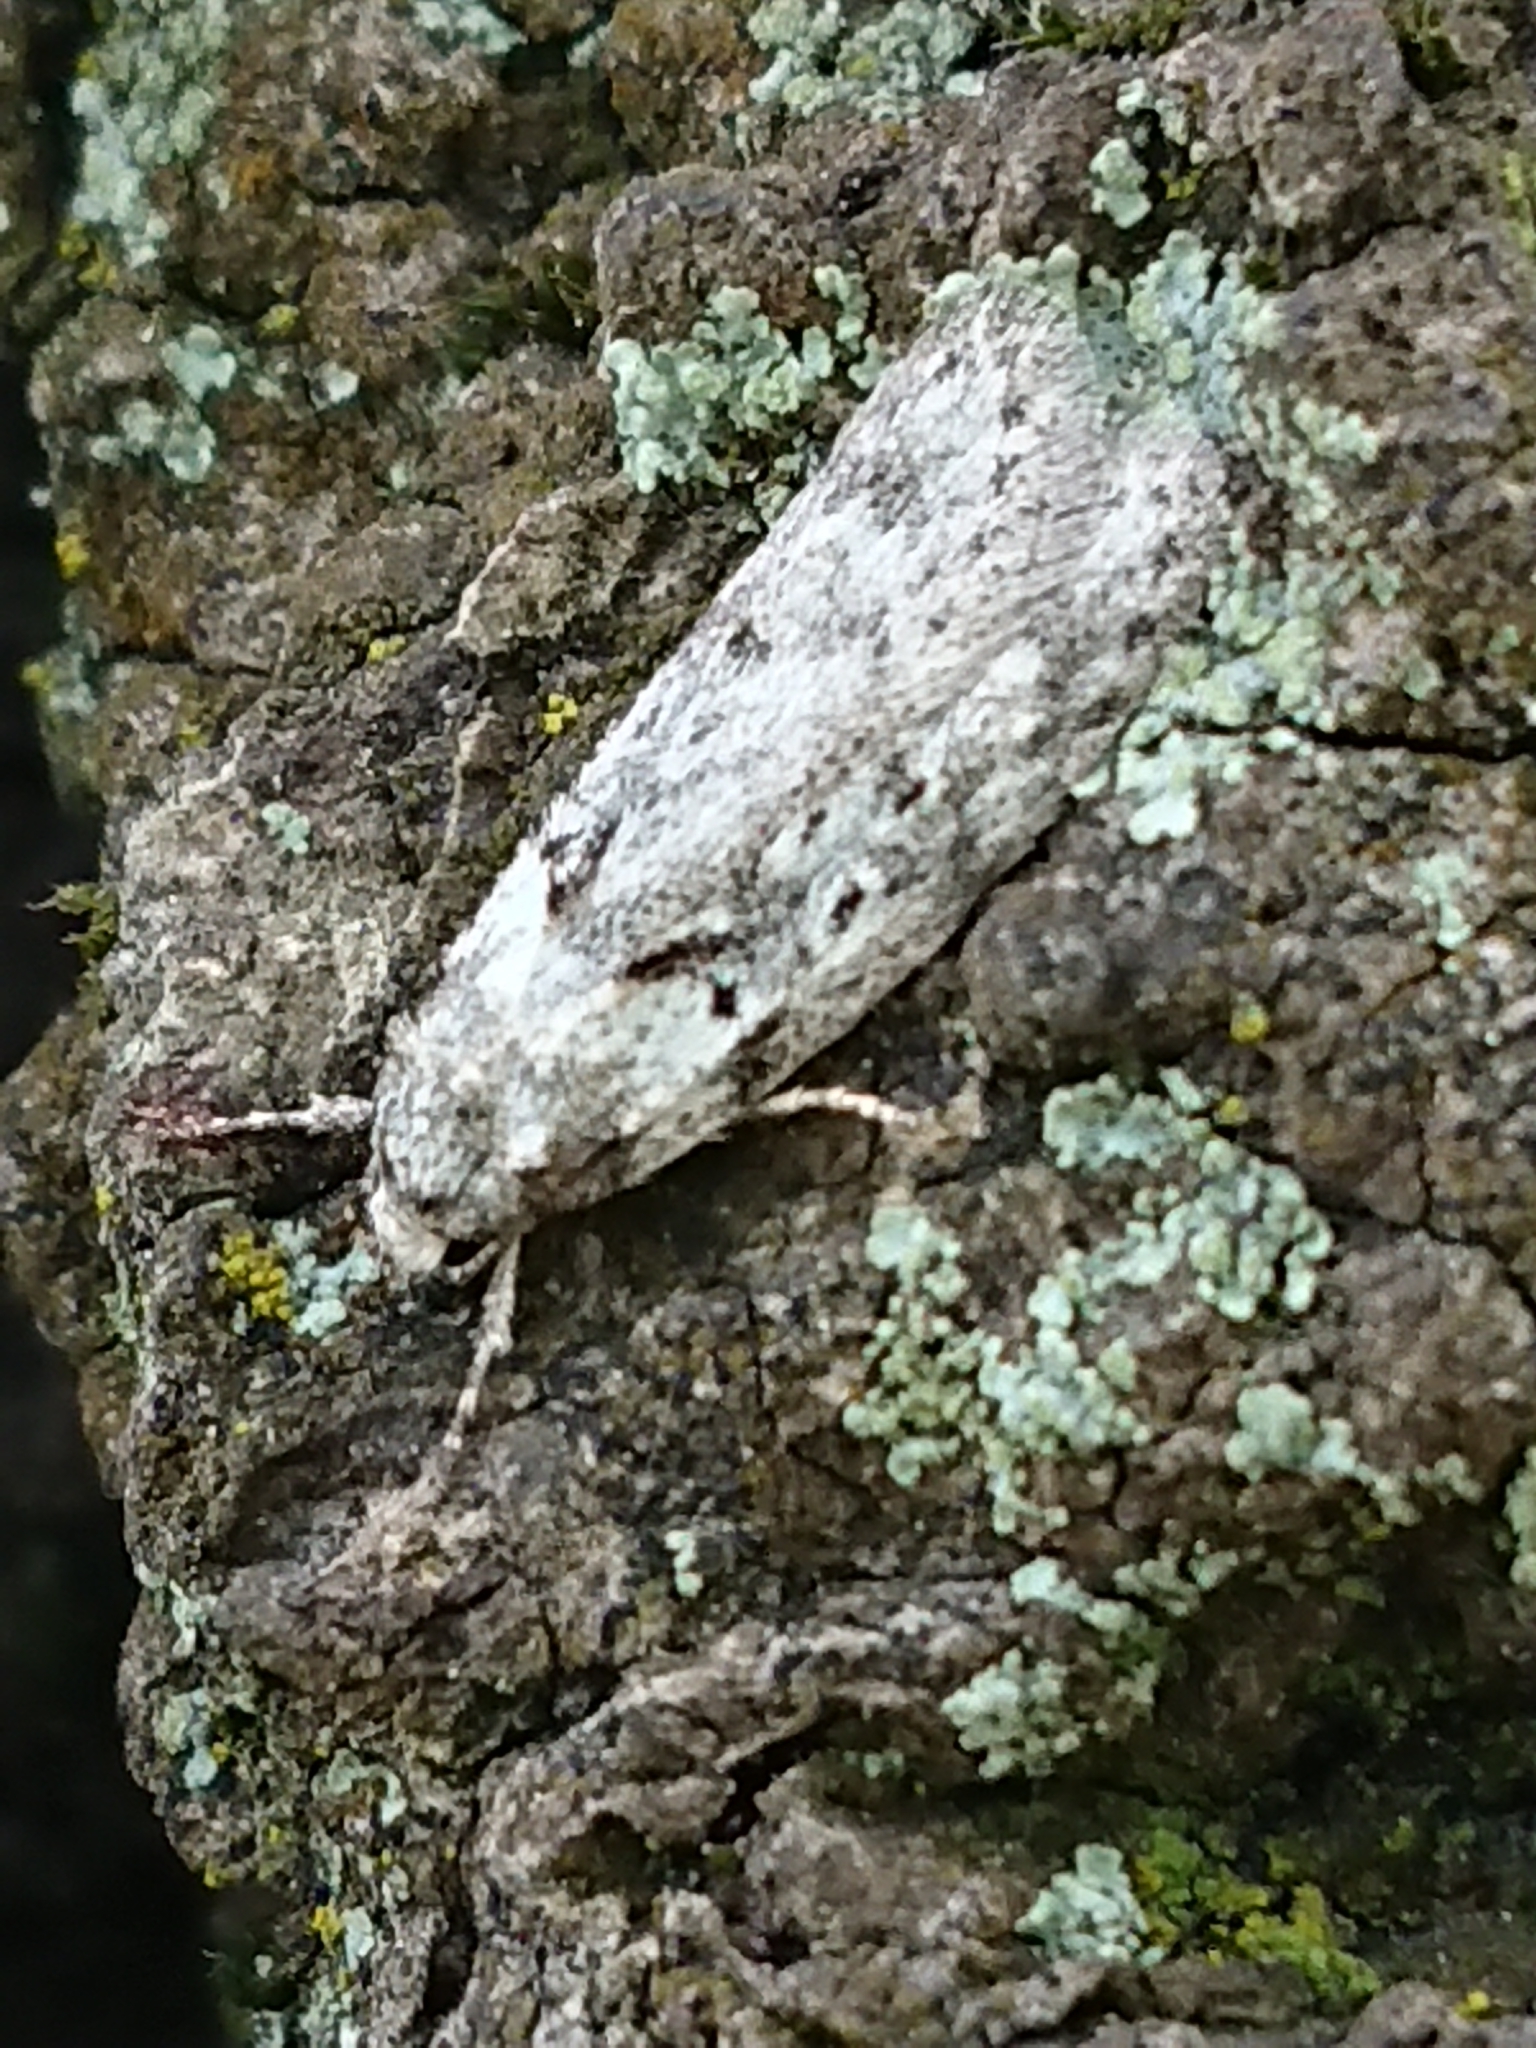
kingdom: Animalia
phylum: Arthropoda
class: Insecta
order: Lepidoptera
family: Oecophoridae
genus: Izatha
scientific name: Izatha convulsella
